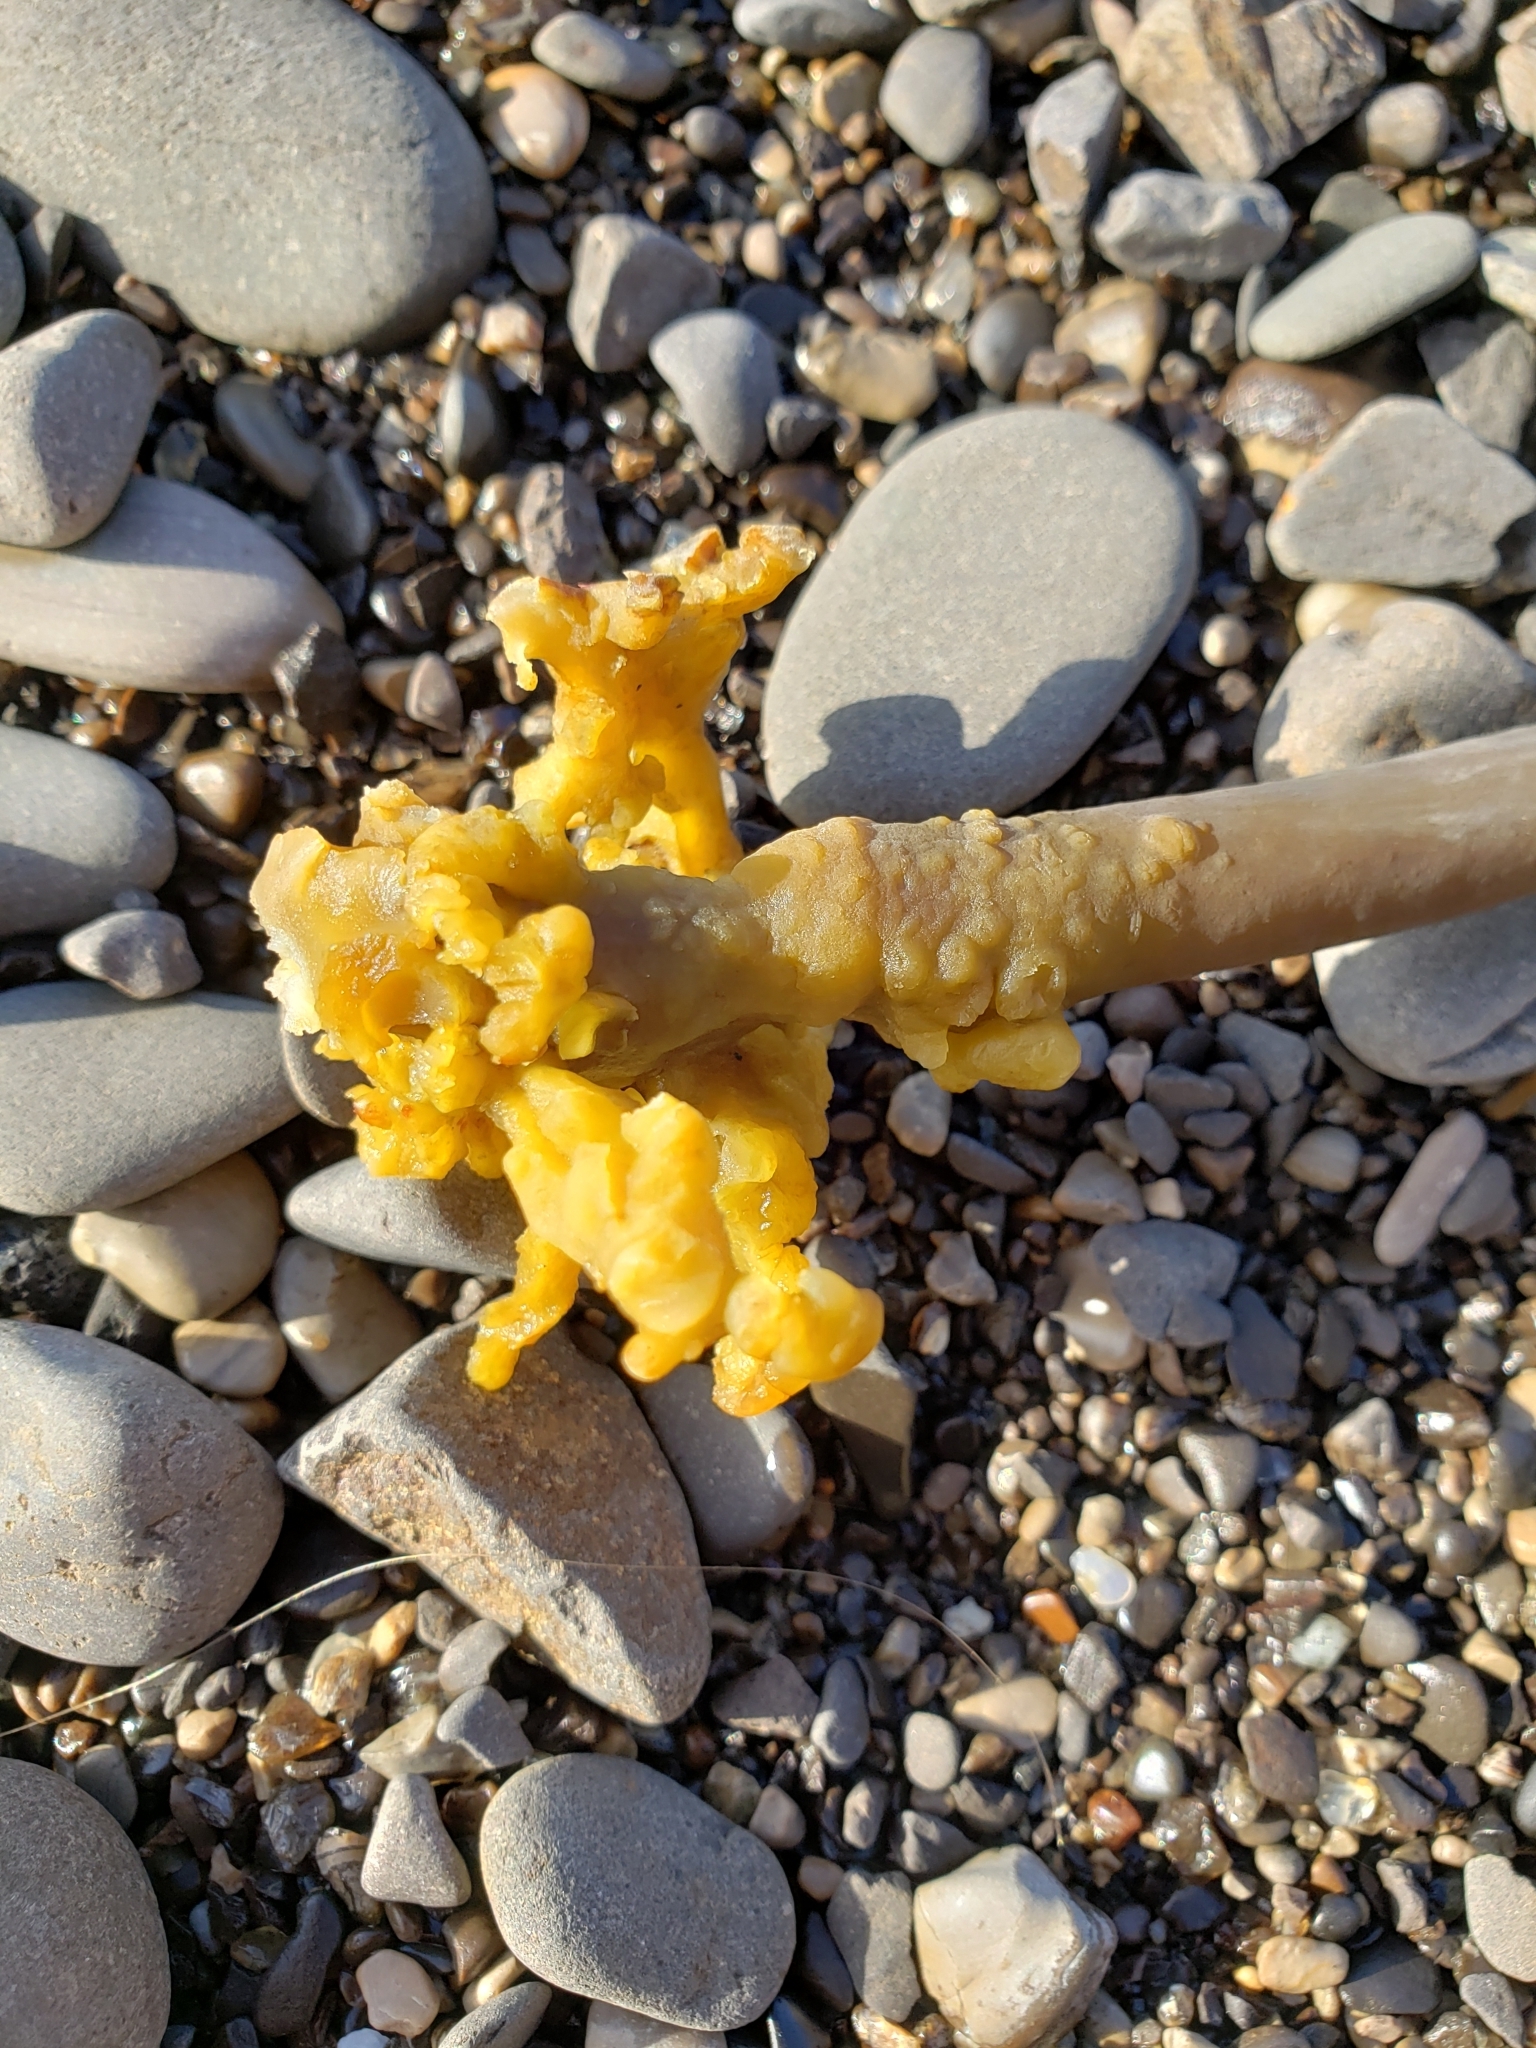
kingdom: Chromista
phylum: Ochrophyta
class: Phaeophyceae
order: Laminariales
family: Laminariaceae
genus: Nereocystis
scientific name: Nereocystis luetkeana
